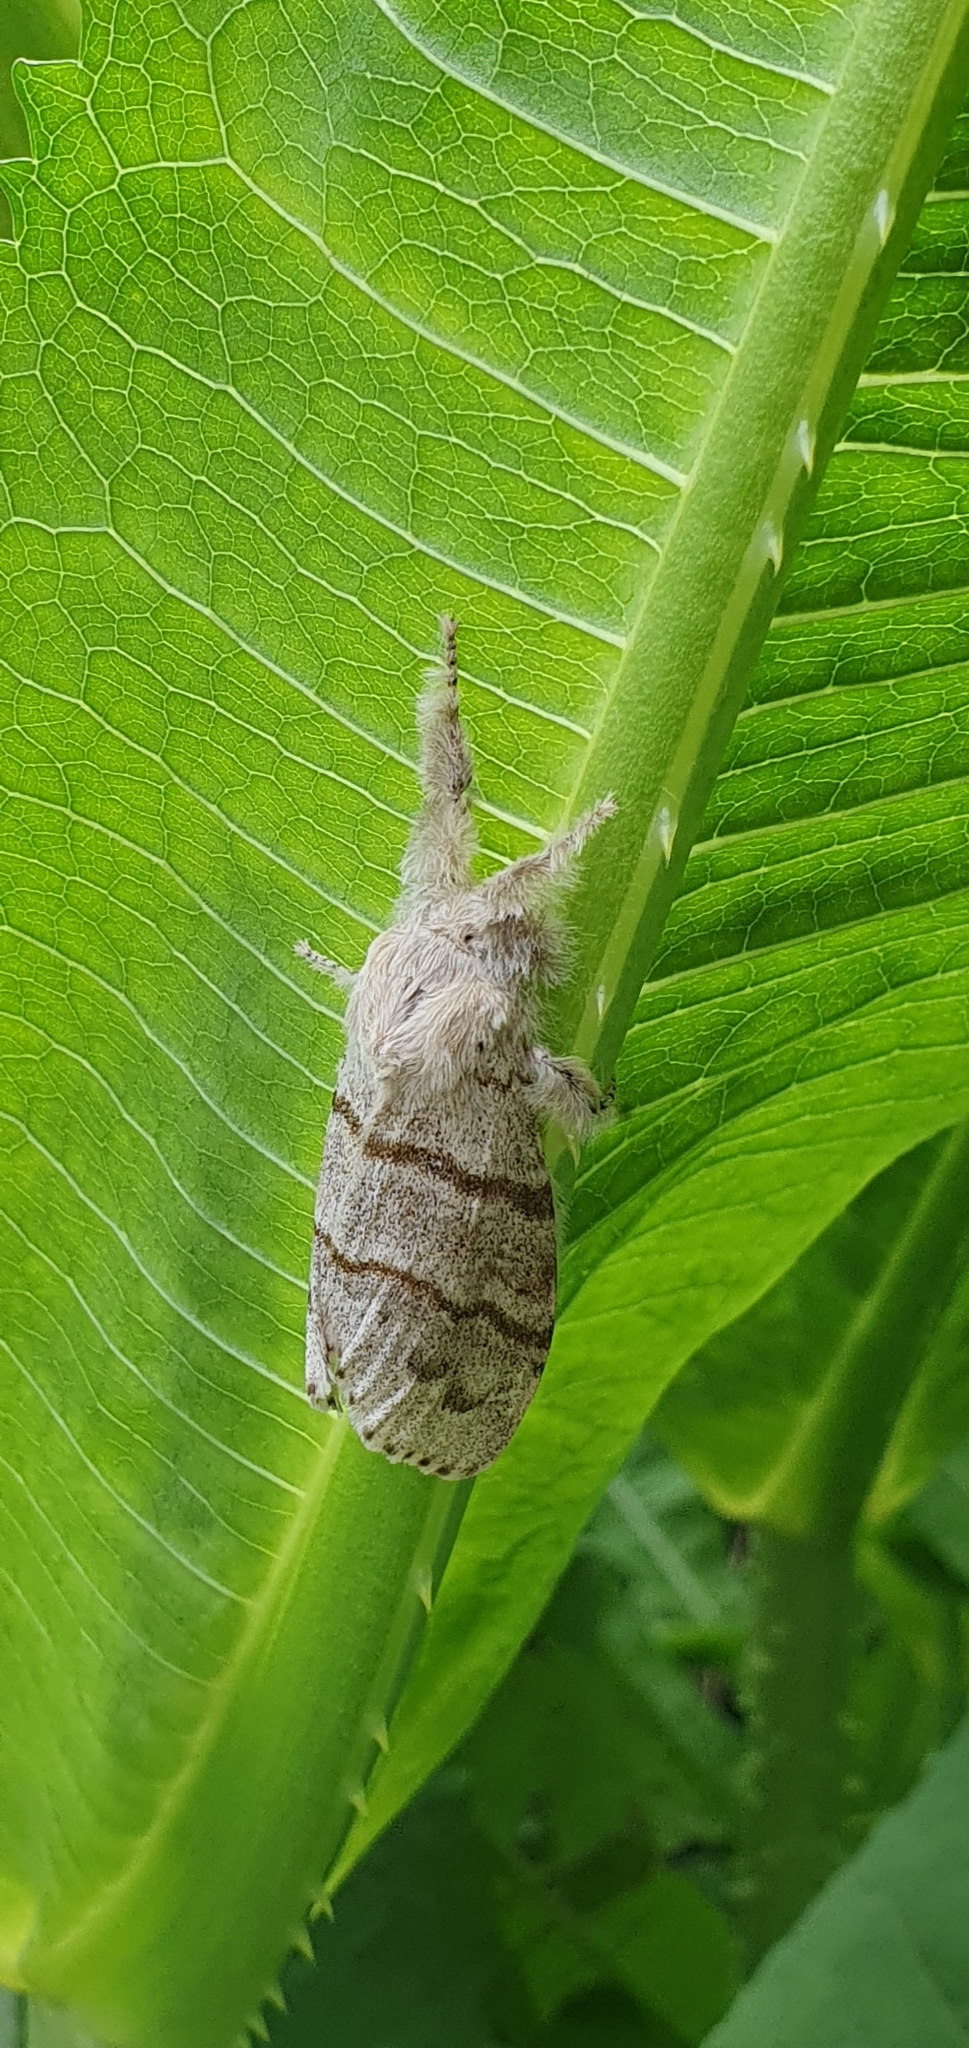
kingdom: Animalia
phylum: Arthropoda
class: Insecta
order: Lepidoptera
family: Erebidae
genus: Calliteara
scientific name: Calliteara pudibunda
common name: Pale tussock
